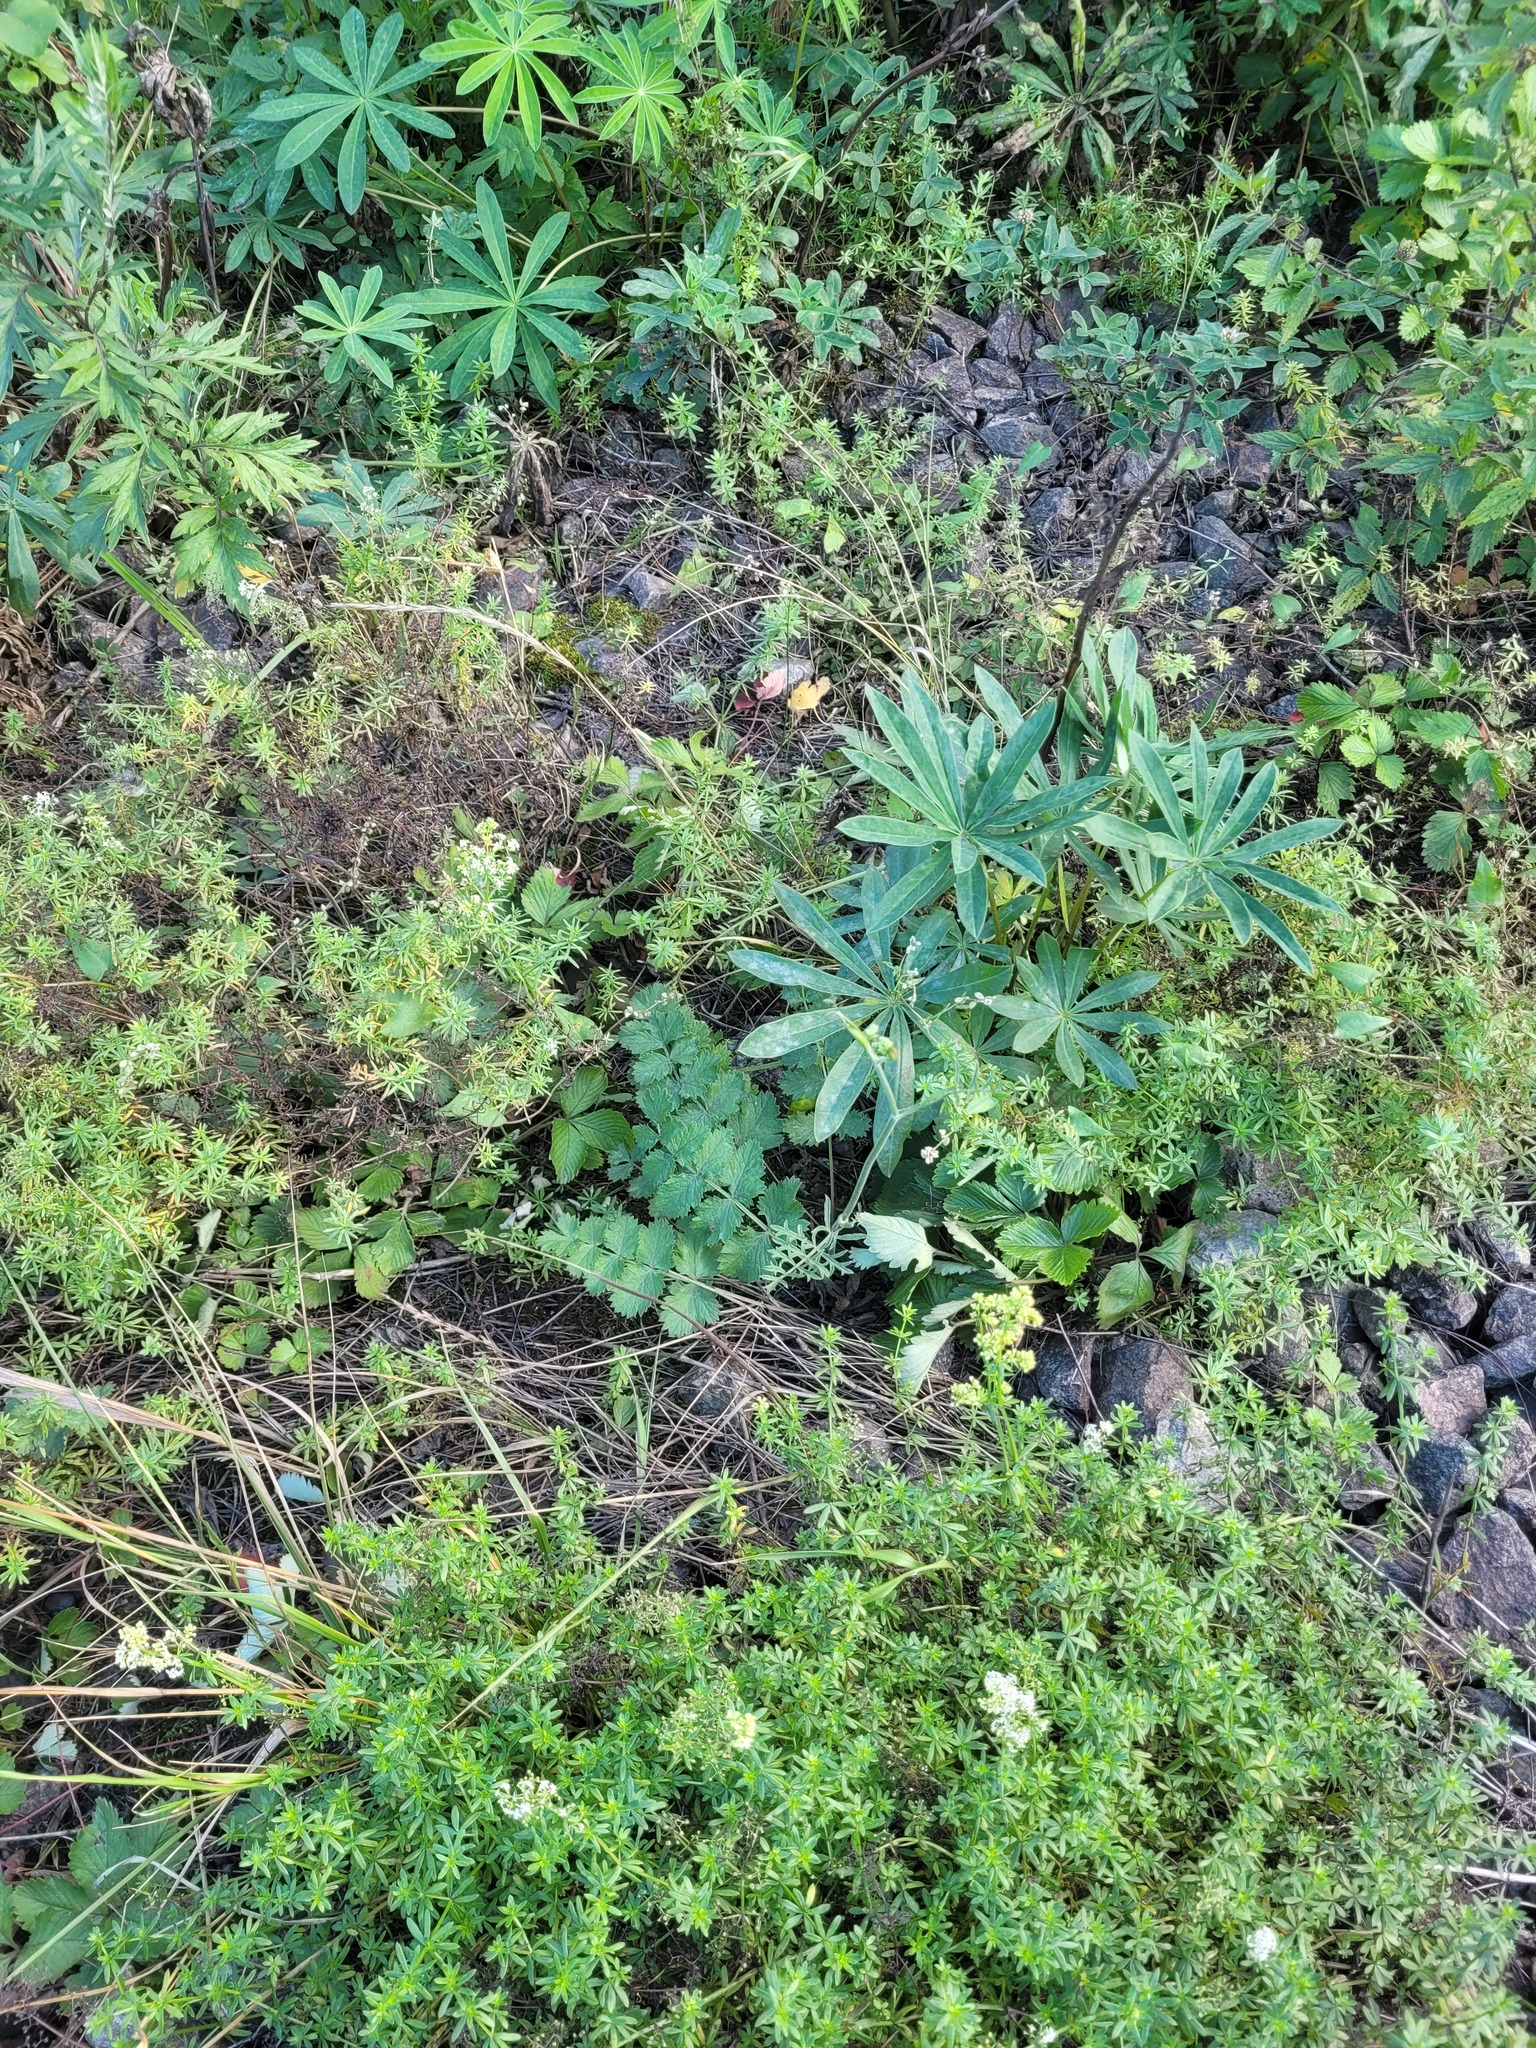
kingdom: Plantae
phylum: Tracheophyta
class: Magnoliopsida
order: Apiales
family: Apiaceae
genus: Pimpinella
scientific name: Pimpinella saxifraga
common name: Burnet-saxifrage
